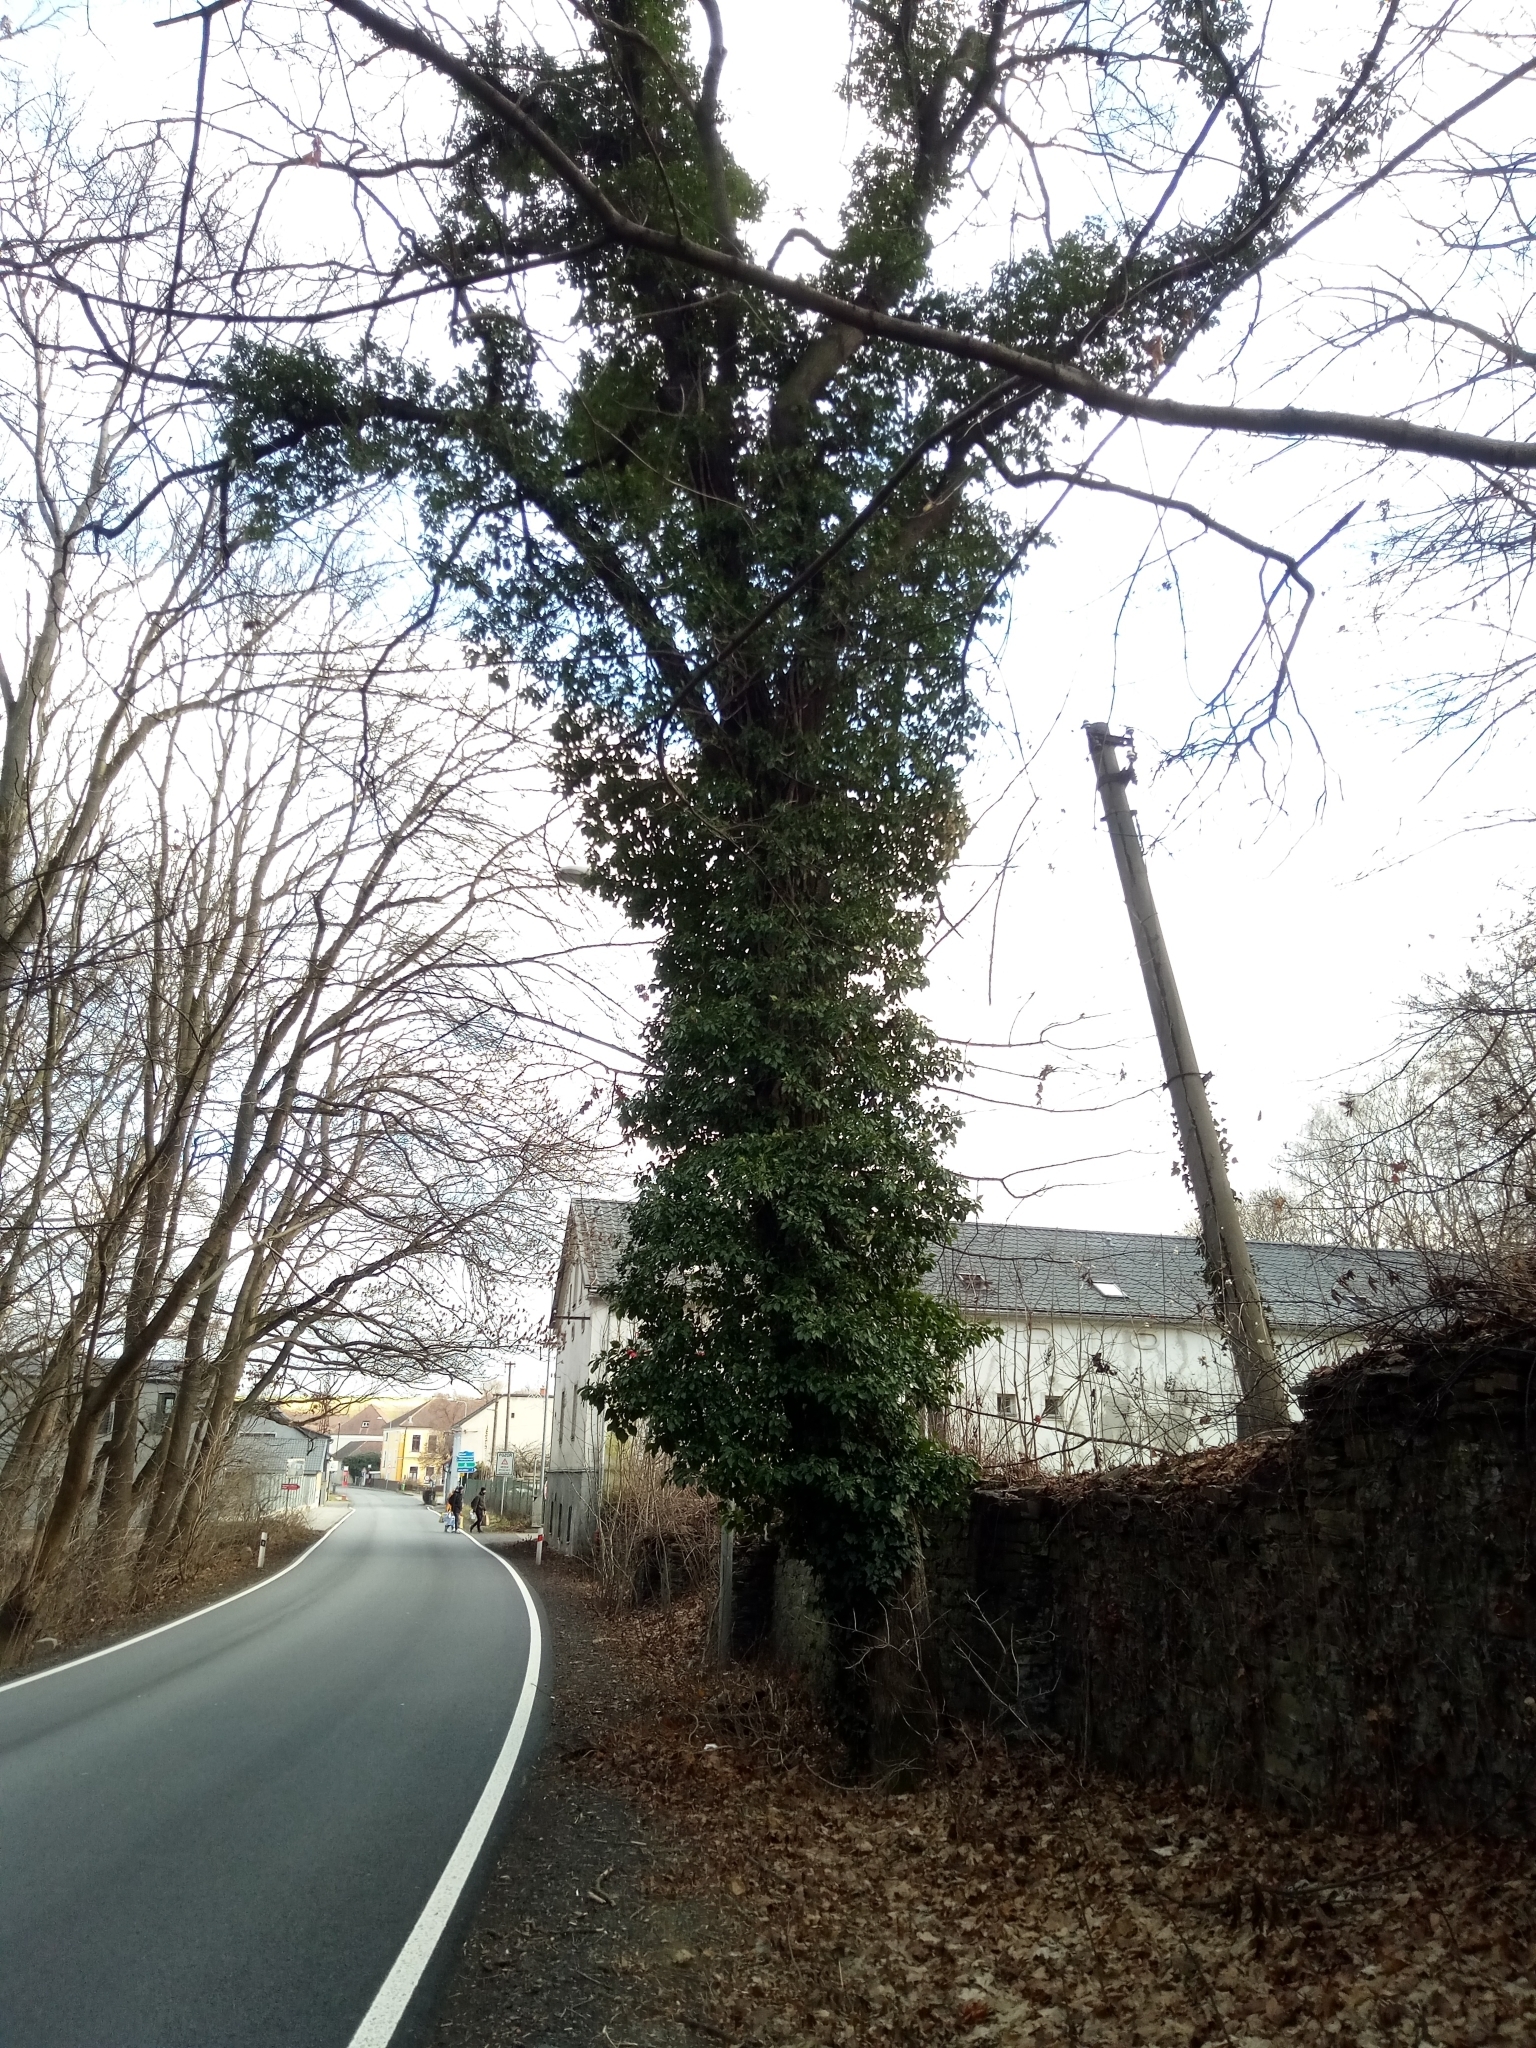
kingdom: Plantae
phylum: Tracheophyta
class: Magnoliopsida
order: Apiales
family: Araliaceae
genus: Hedera
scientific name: Hedera helix
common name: Ivy
